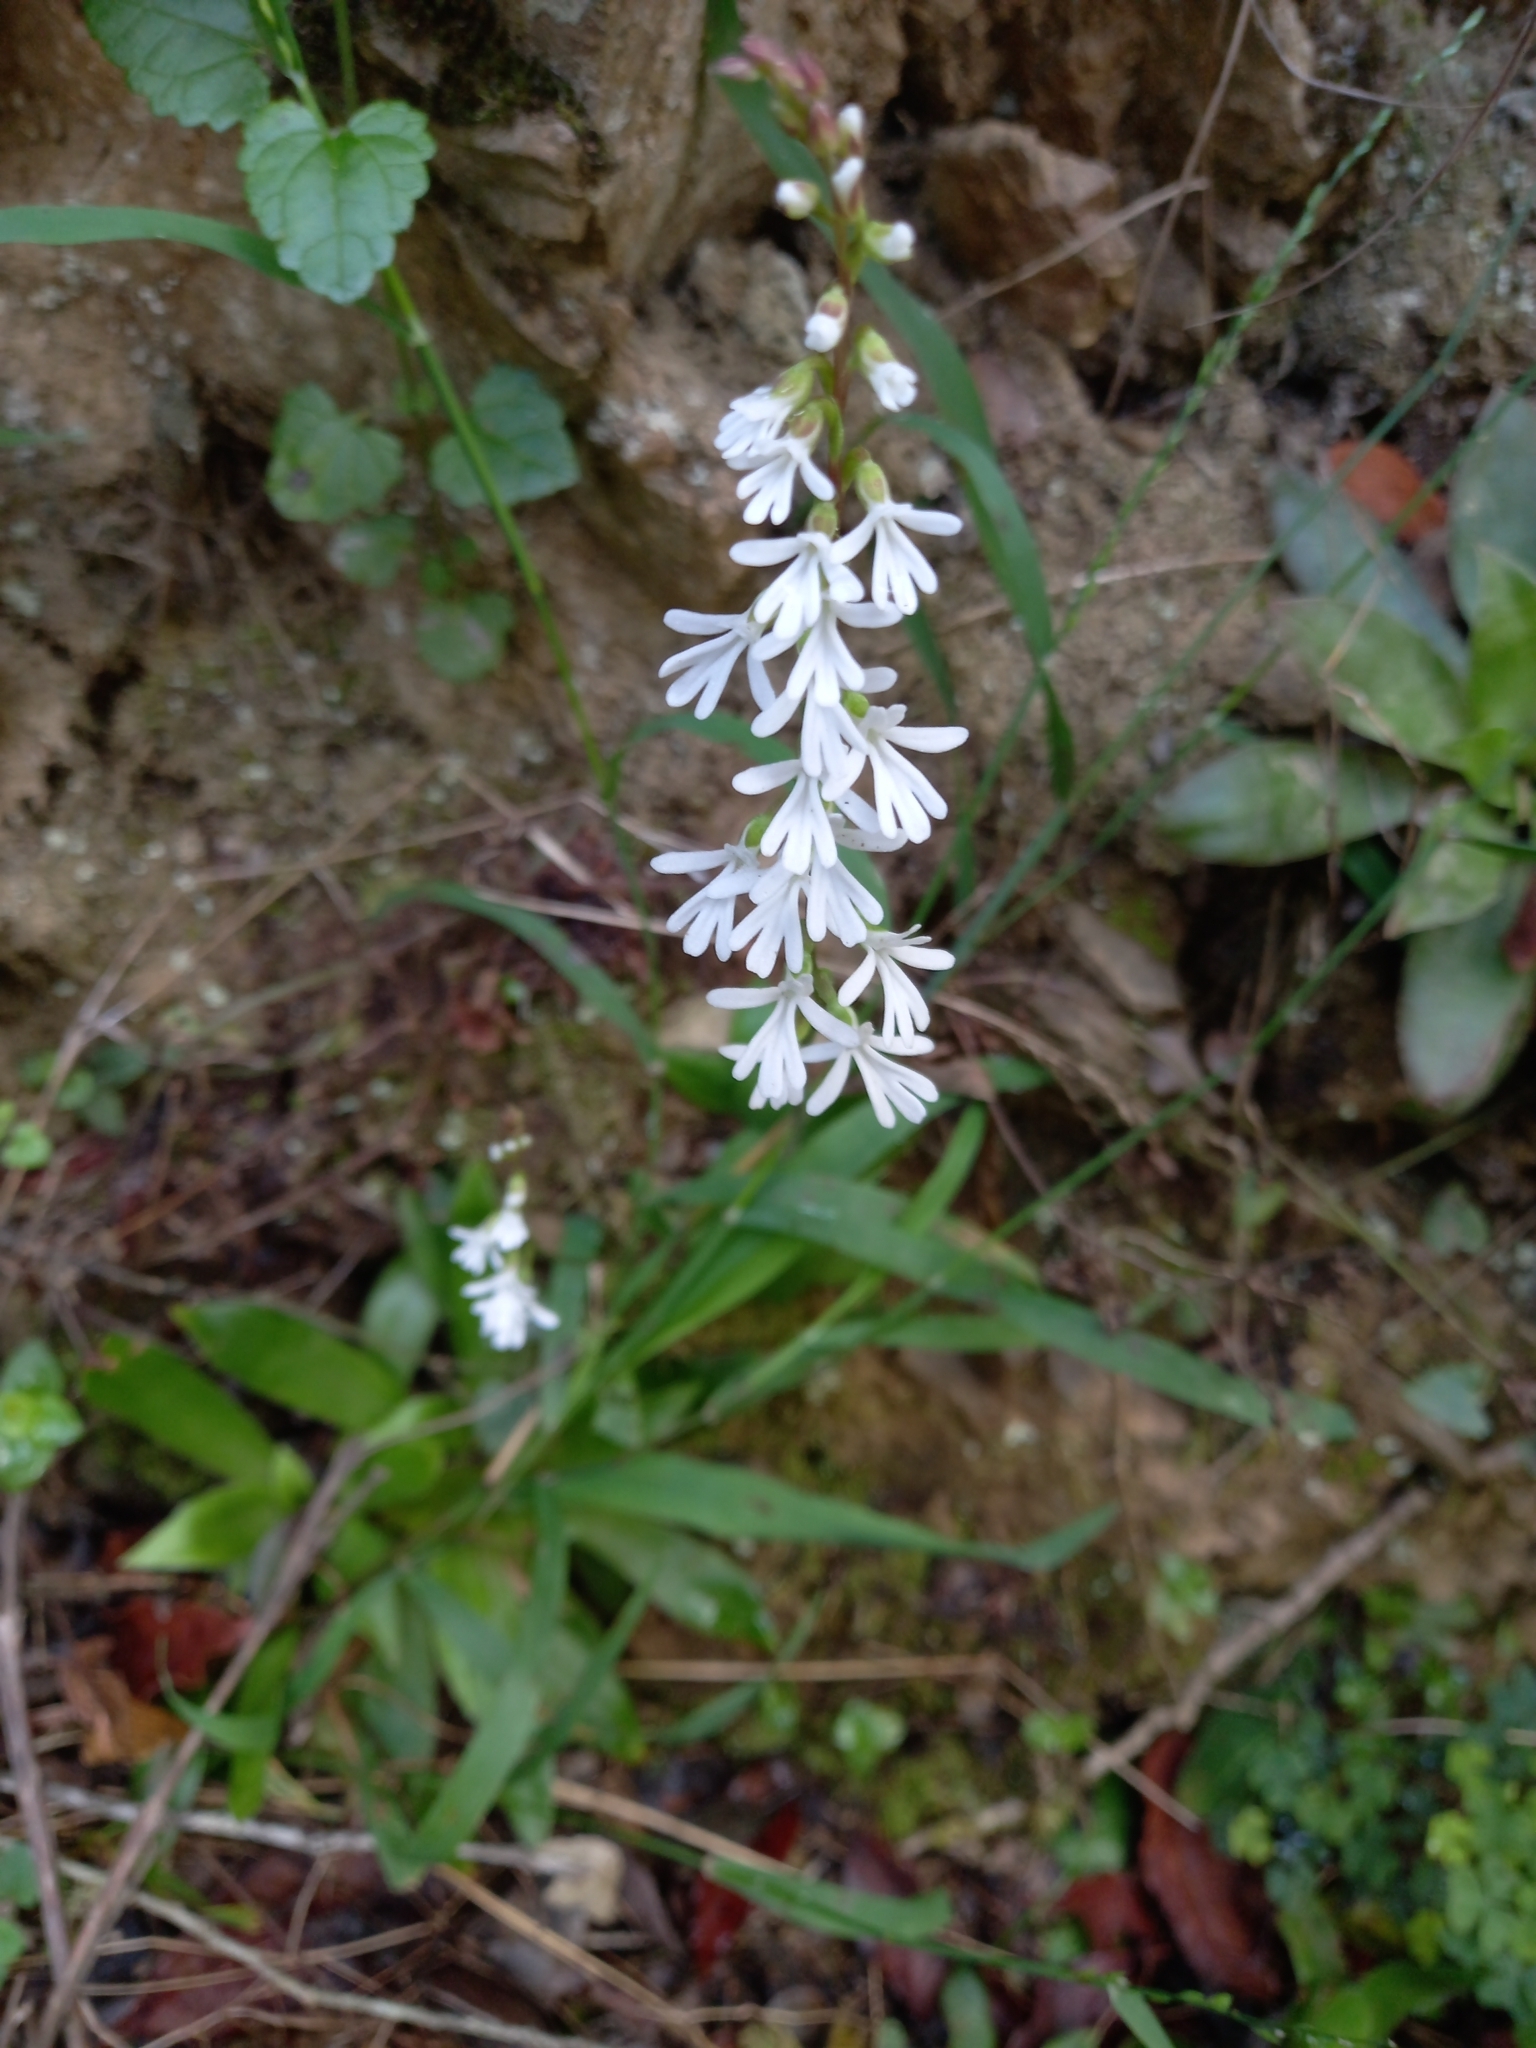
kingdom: Plantae
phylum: Tracheophyta
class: Liliopsida
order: Asparagales
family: Orchidaceae
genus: Holothrix
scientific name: Holothrix parviflora
